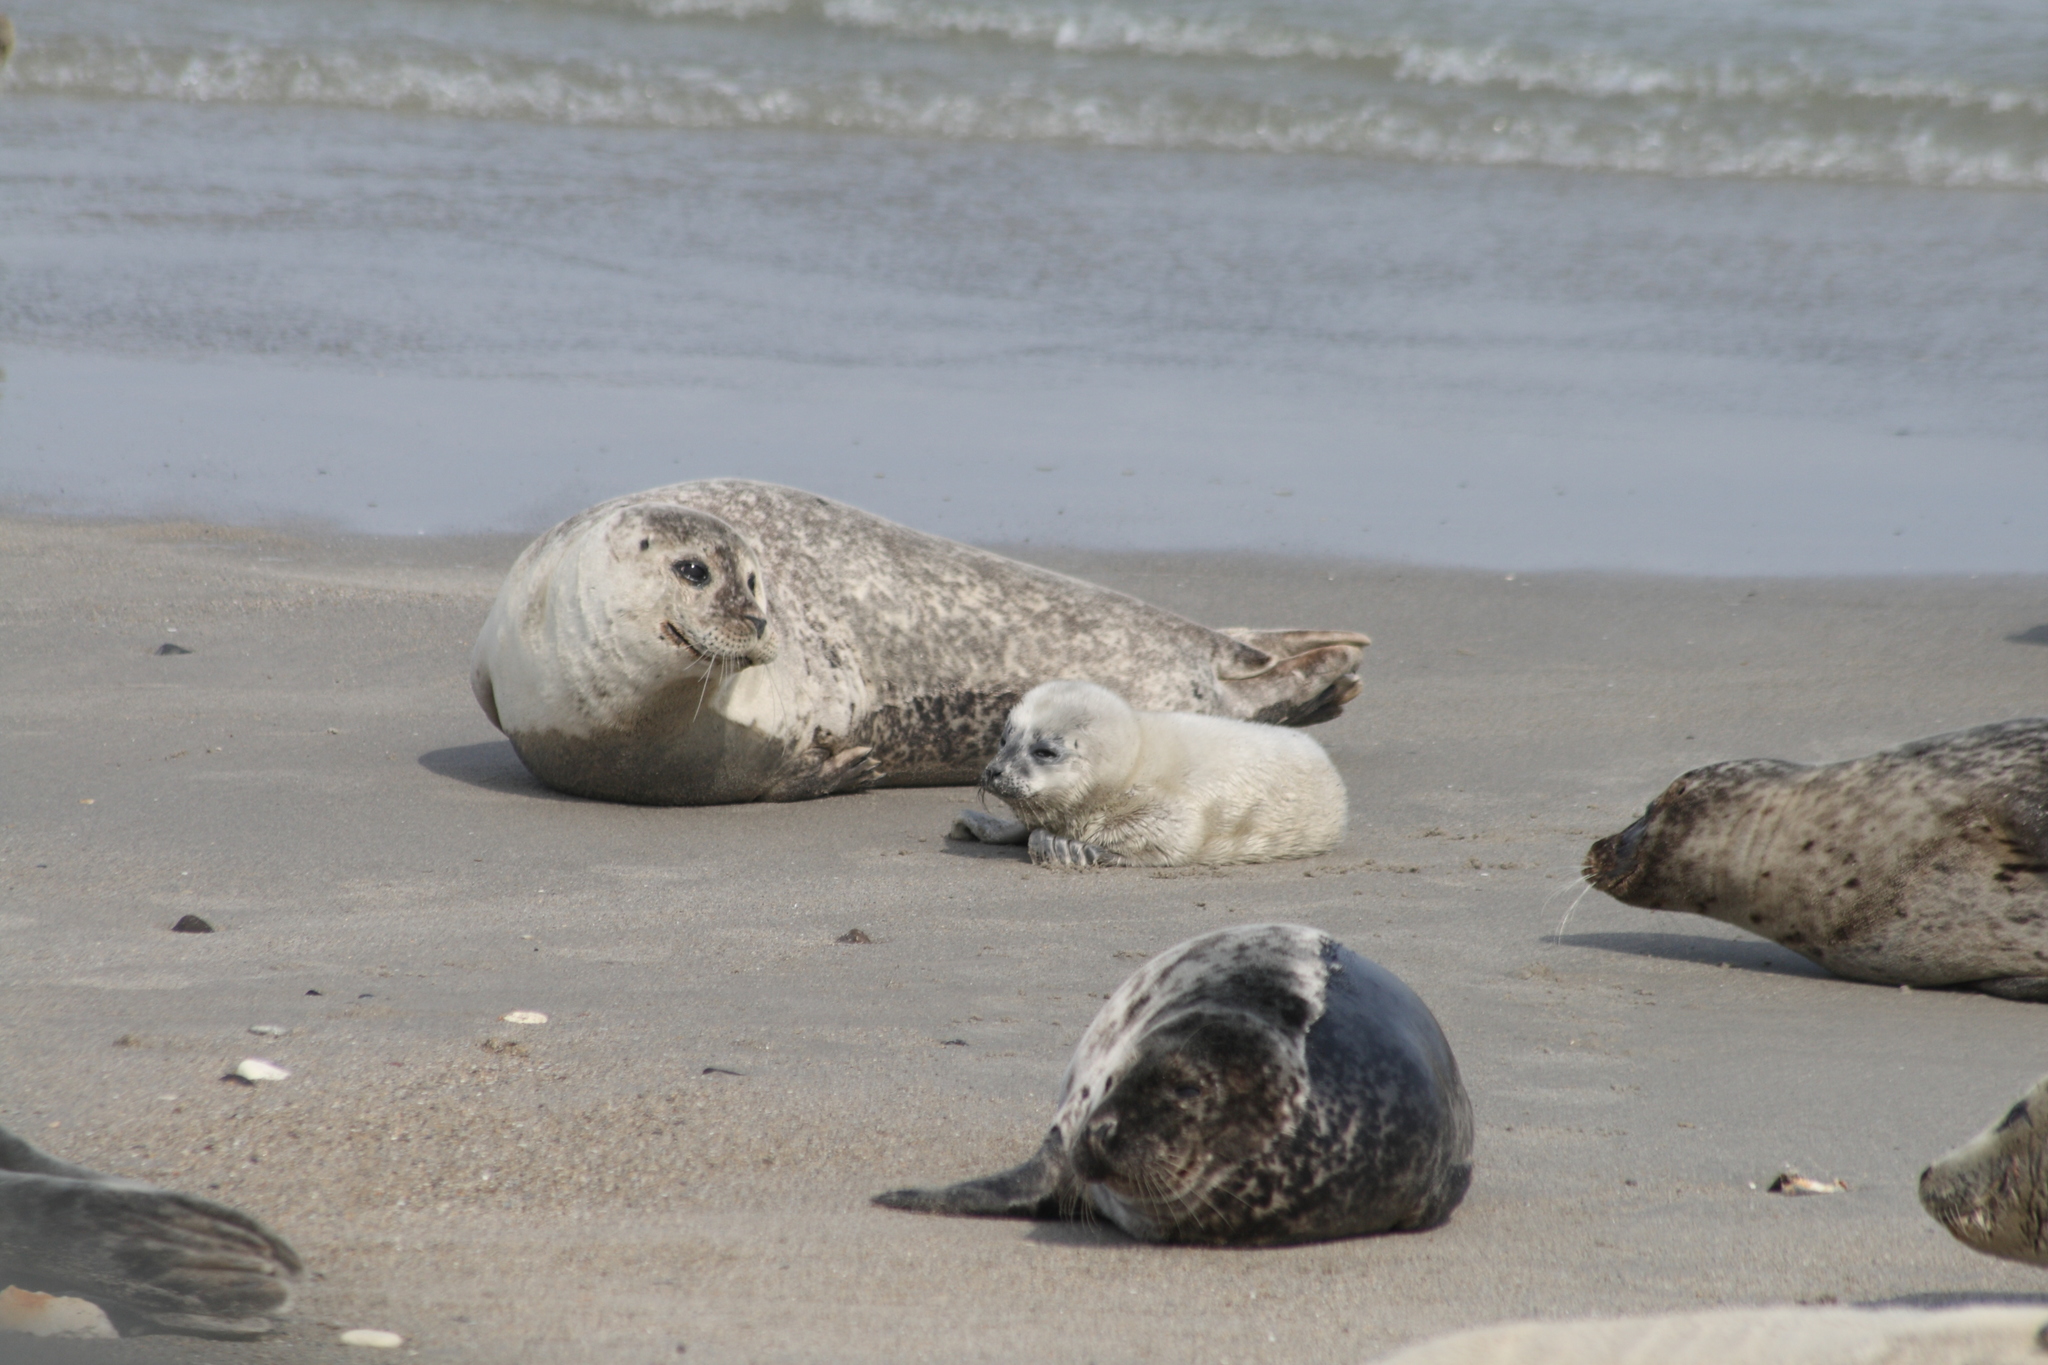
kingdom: Animalia
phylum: Chordata
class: Mammalia
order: Carnivora
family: Phocidae
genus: Phoca
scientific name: Phoca vitulina
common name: Harbor seal
